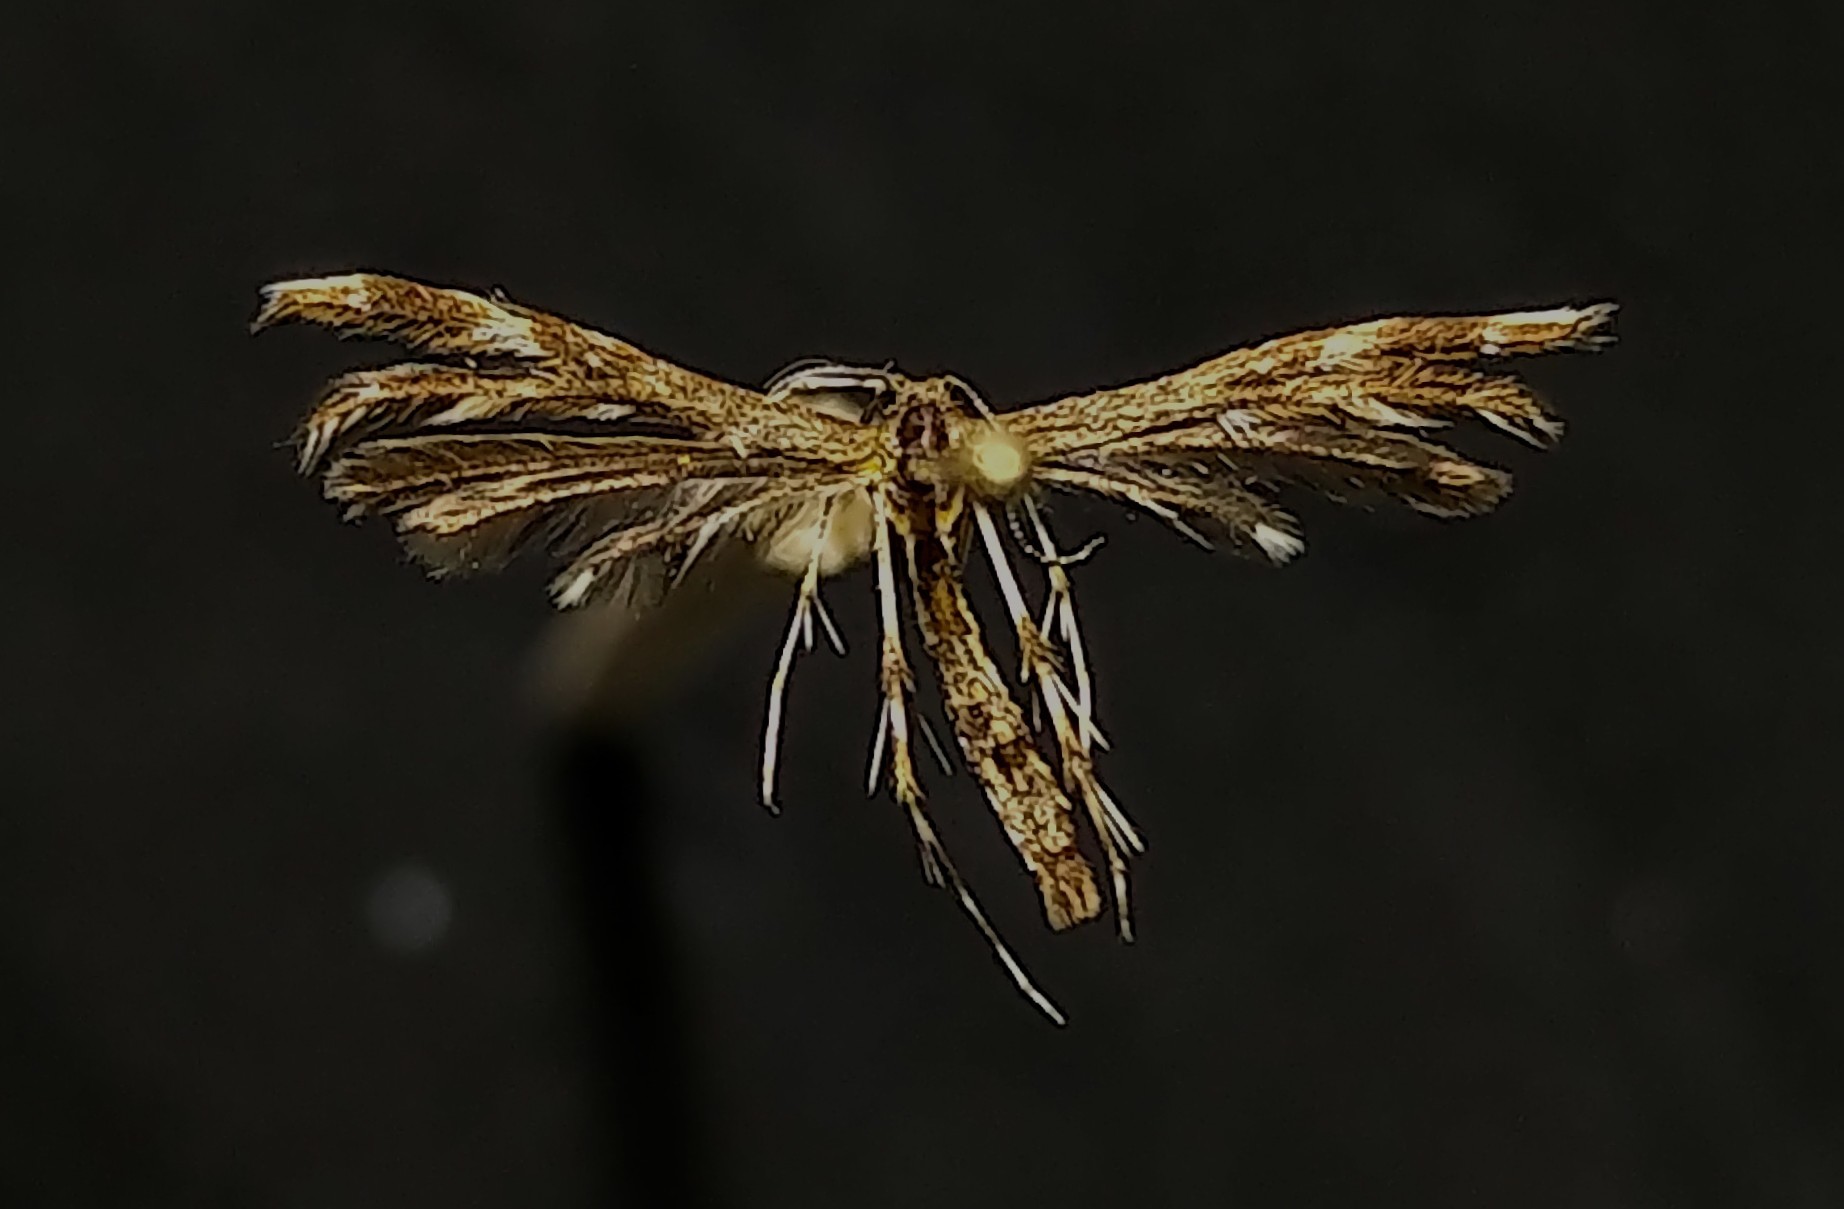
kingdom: Animalia
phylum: Arthropoda
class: Insecta
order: Lepidoptera
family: Pterophoridae
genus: Capperia
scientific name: Capperia ningoris
